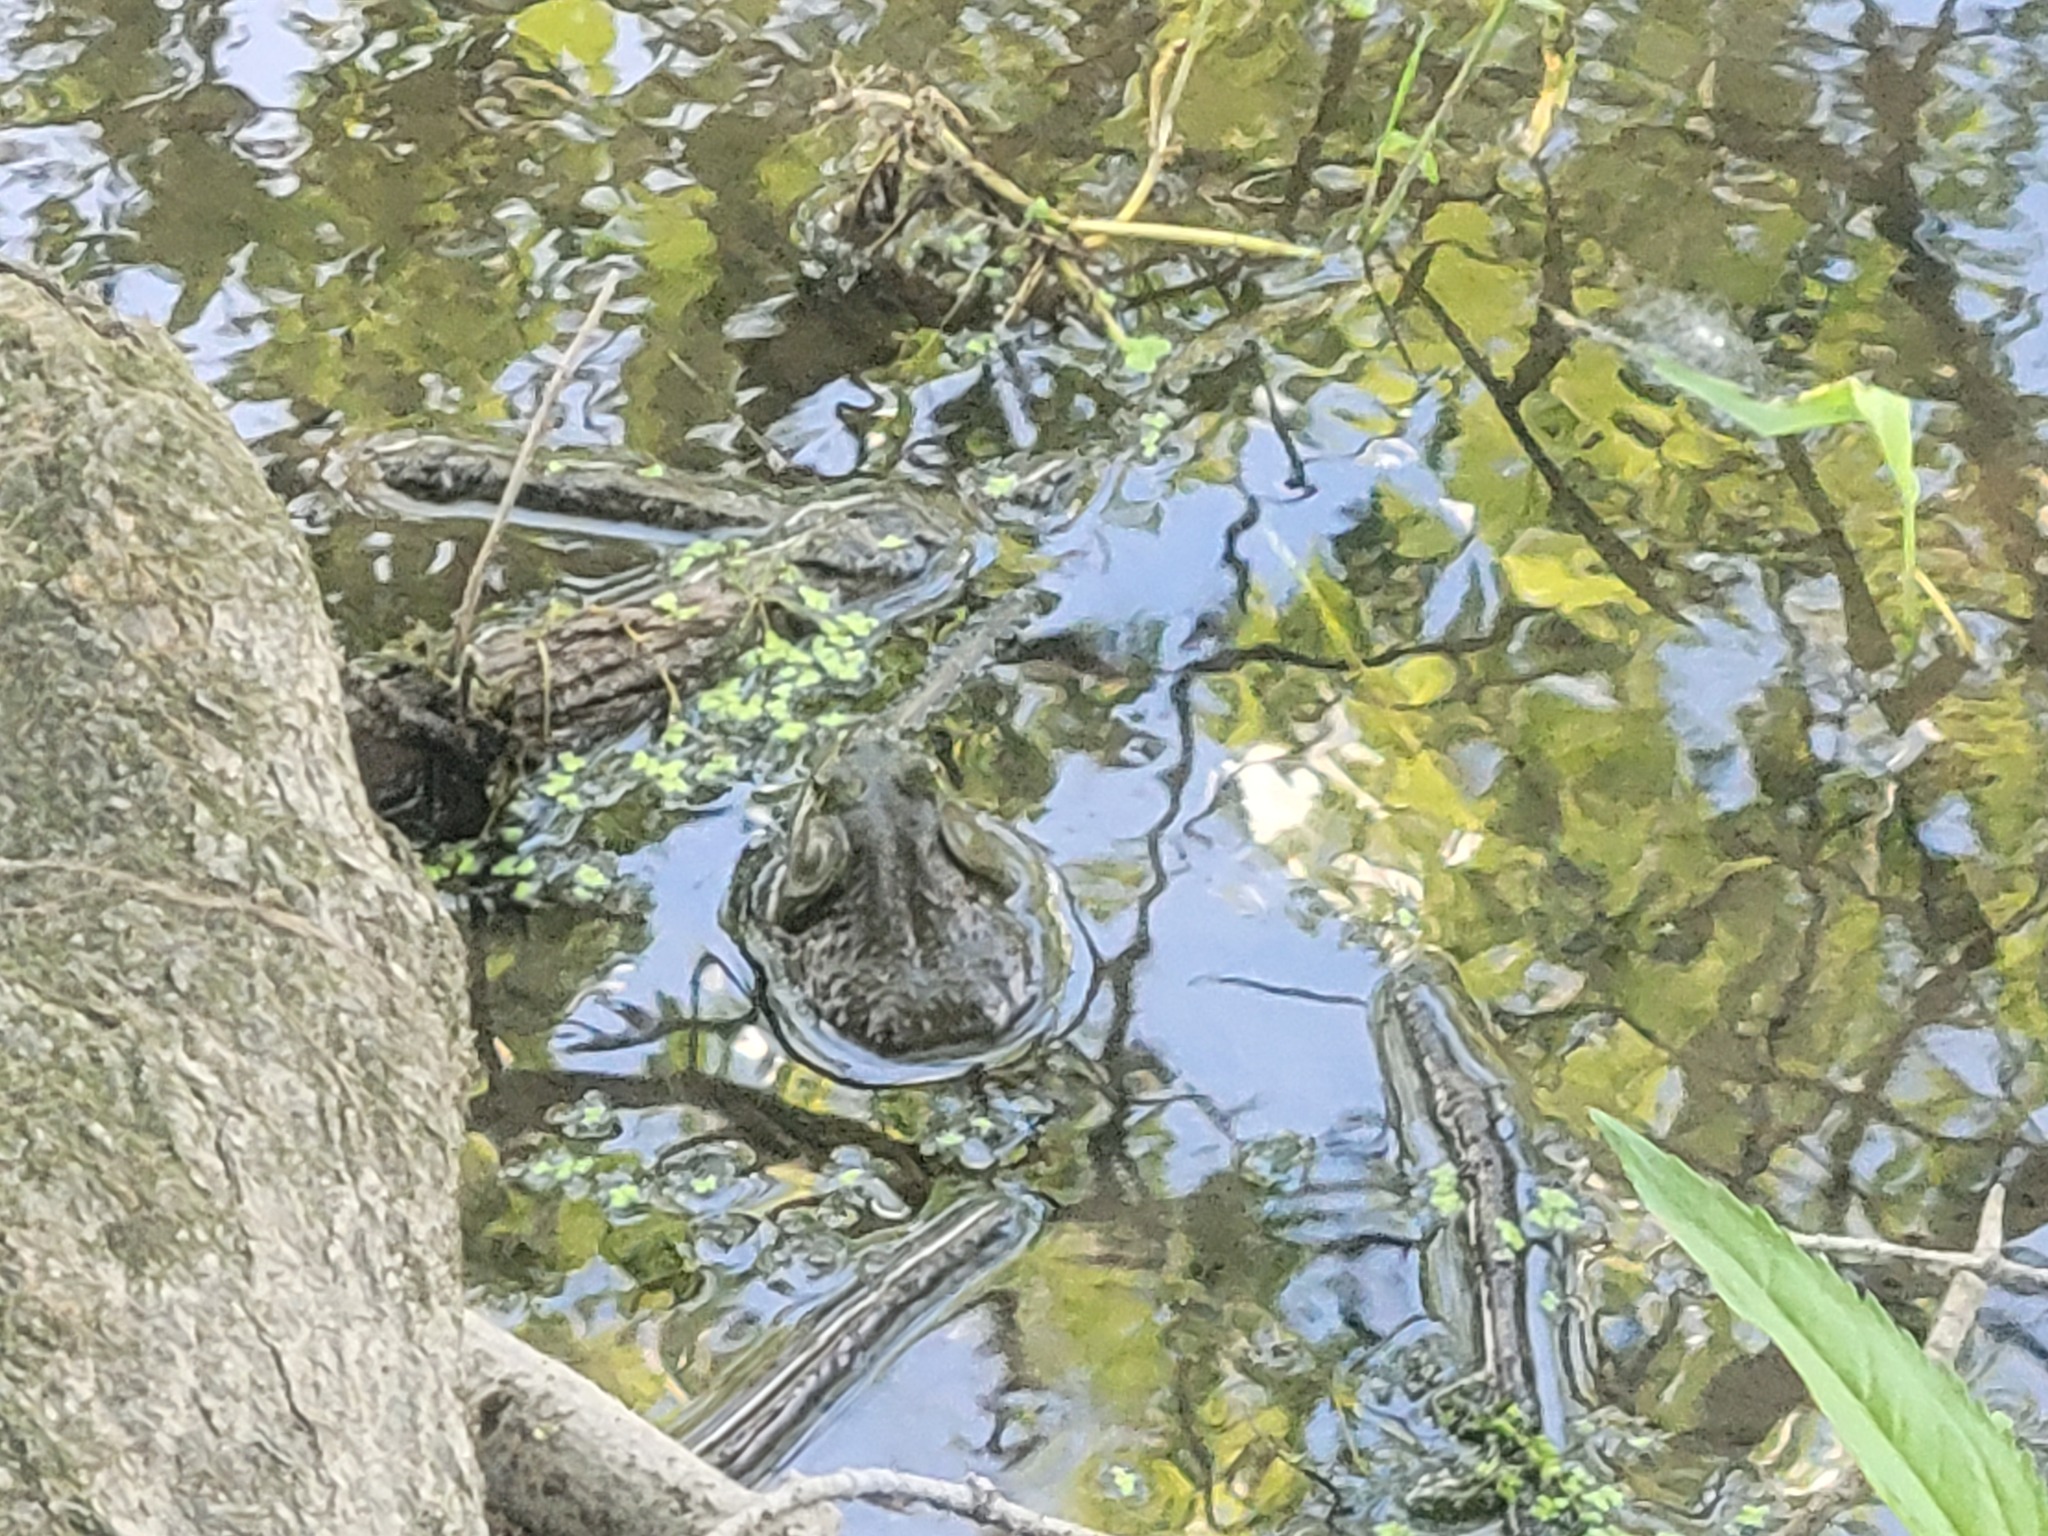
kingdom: Animalia
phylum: Chordata
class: Amphibia
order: Anura
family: Ranidae
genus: Lithobates
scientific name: Lithobates catesbeianus
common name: American bullfrog
